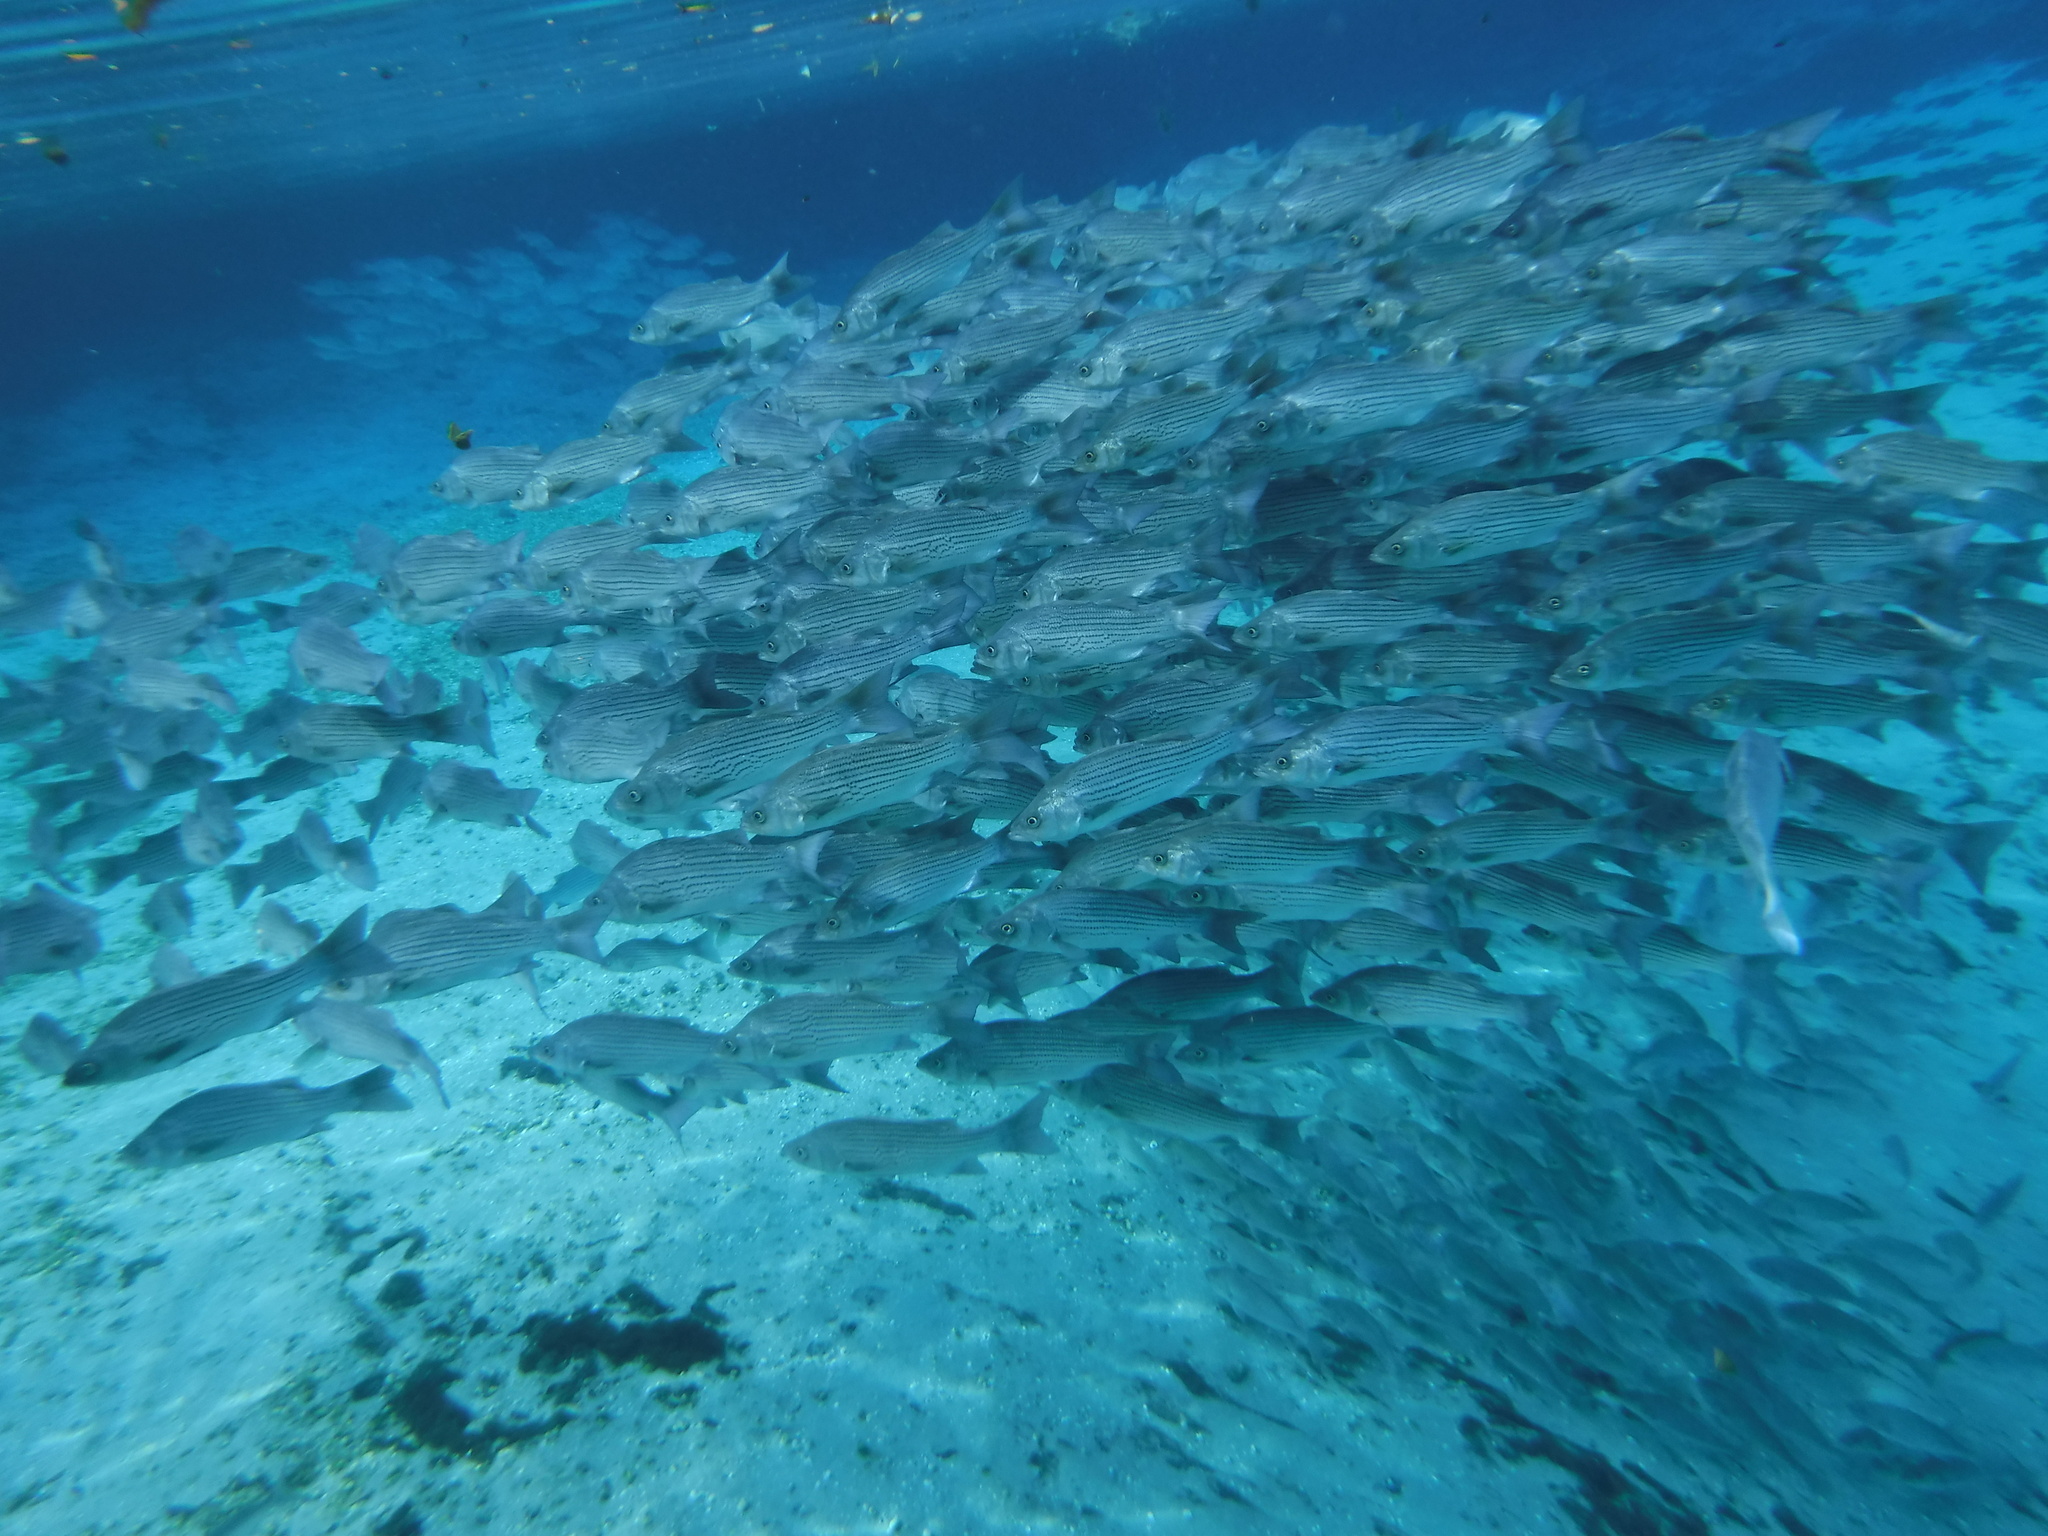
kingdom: Animalia
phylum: Chordata
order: Perciformes
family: Moronidae
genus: Morone
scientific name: Morone
